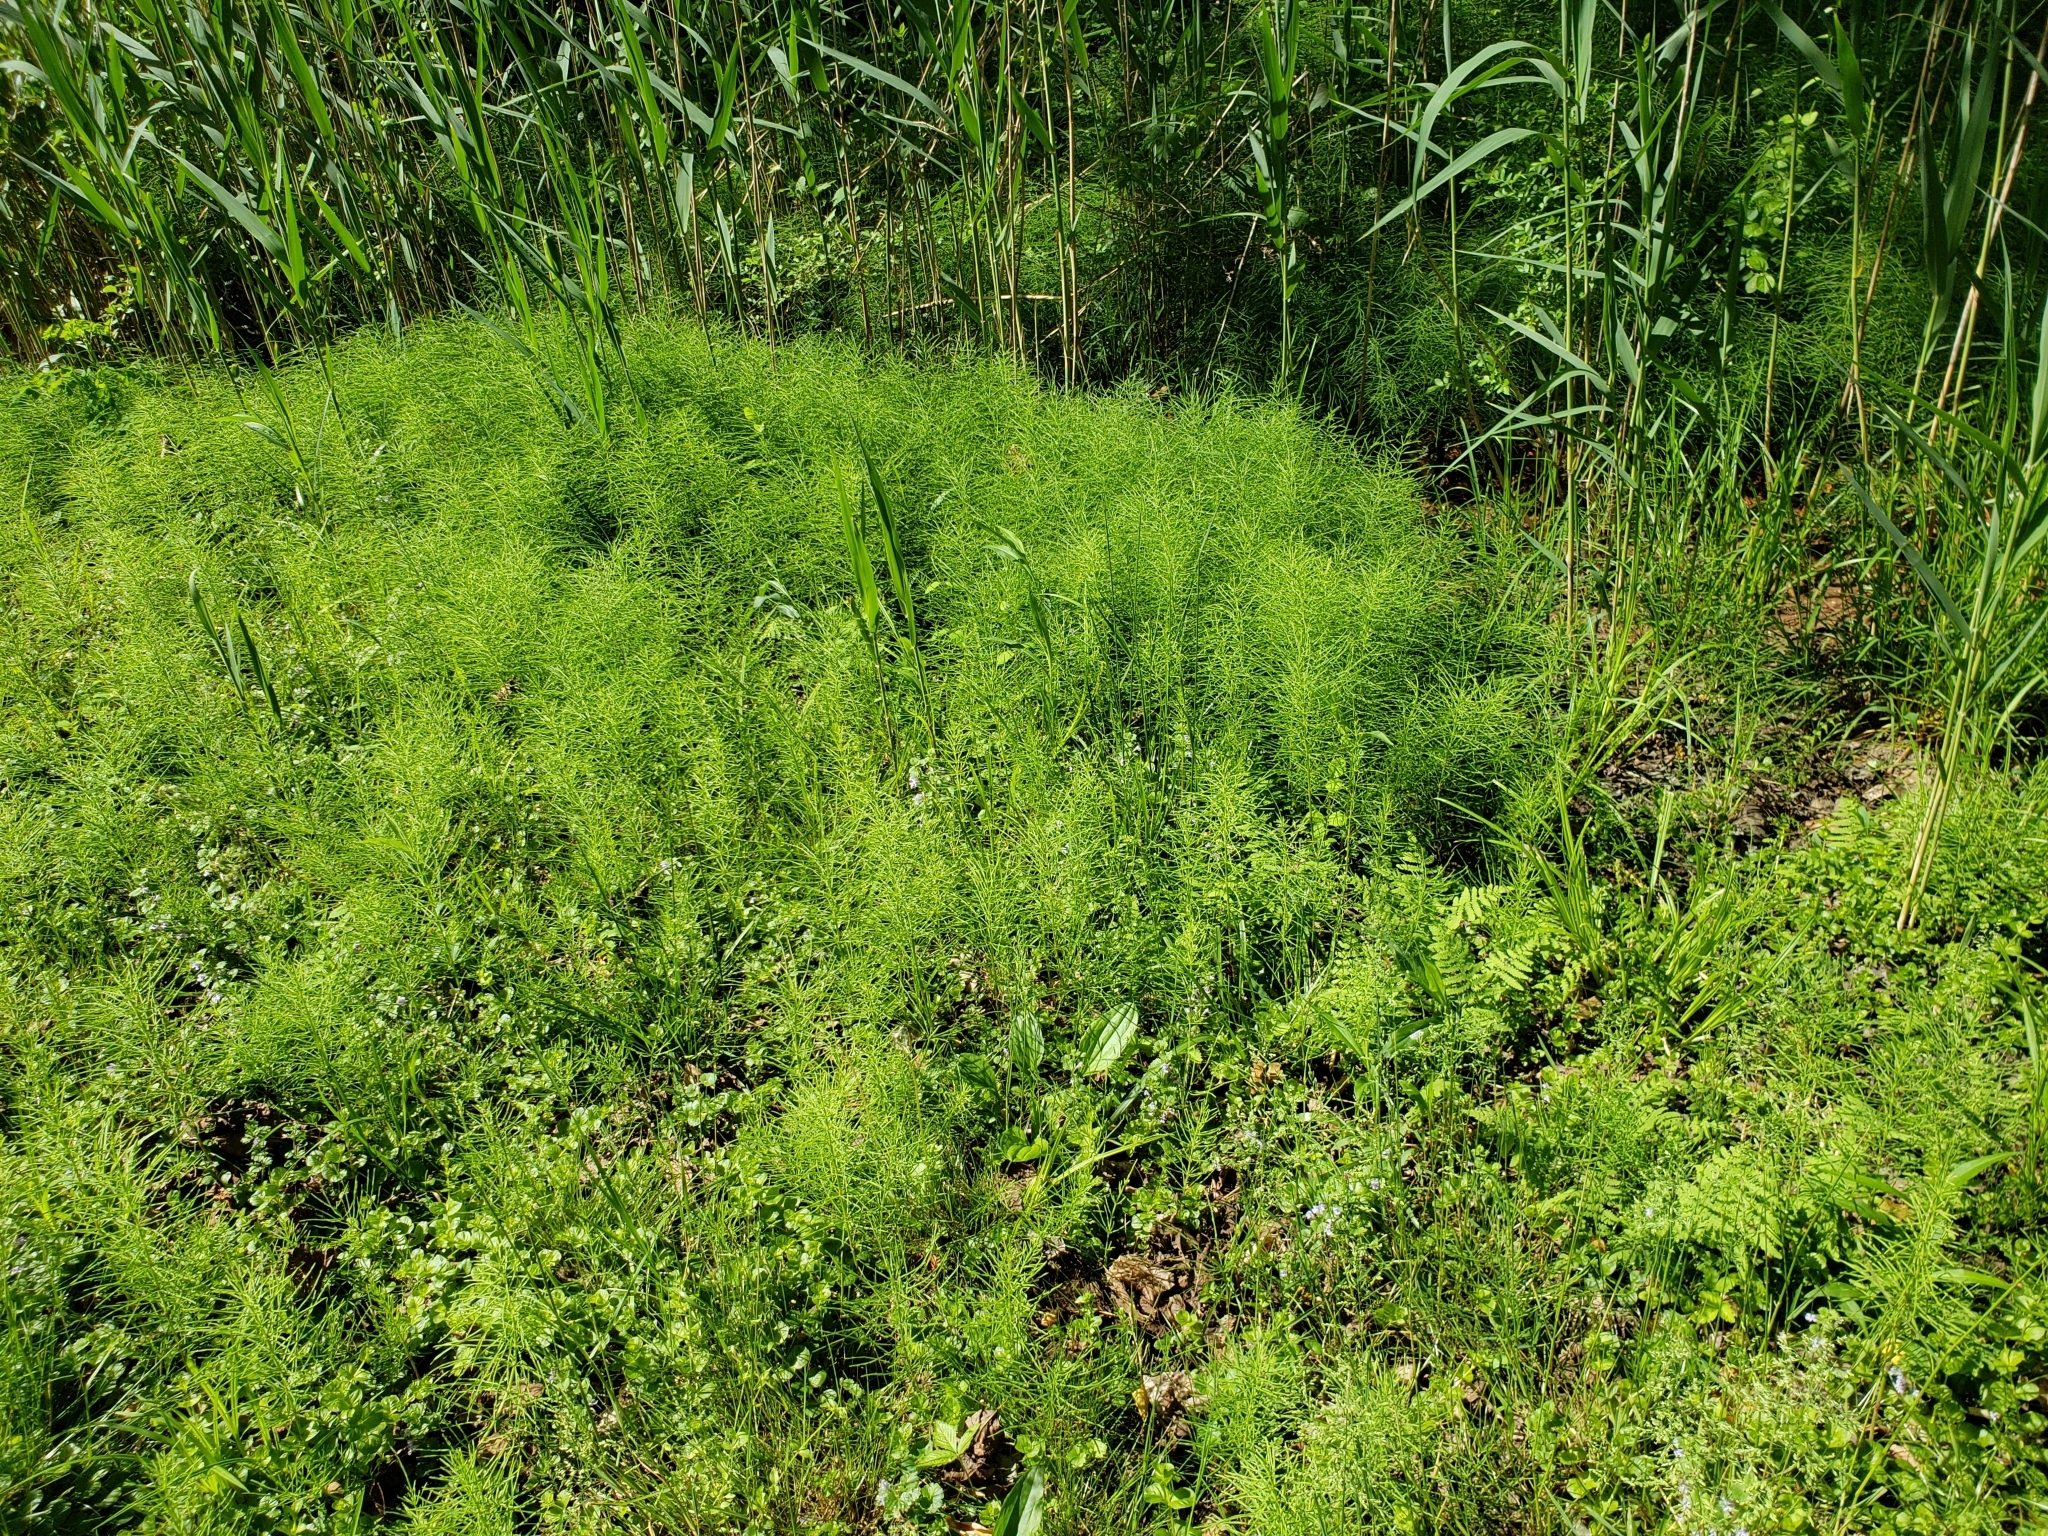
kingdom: Plantae
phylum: Tracheophyta
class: Polypodiopsida
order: Equisetales
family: Equisetaceae
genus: Equisetum
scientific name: Equisetum fluviatile
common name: Water horsetail
